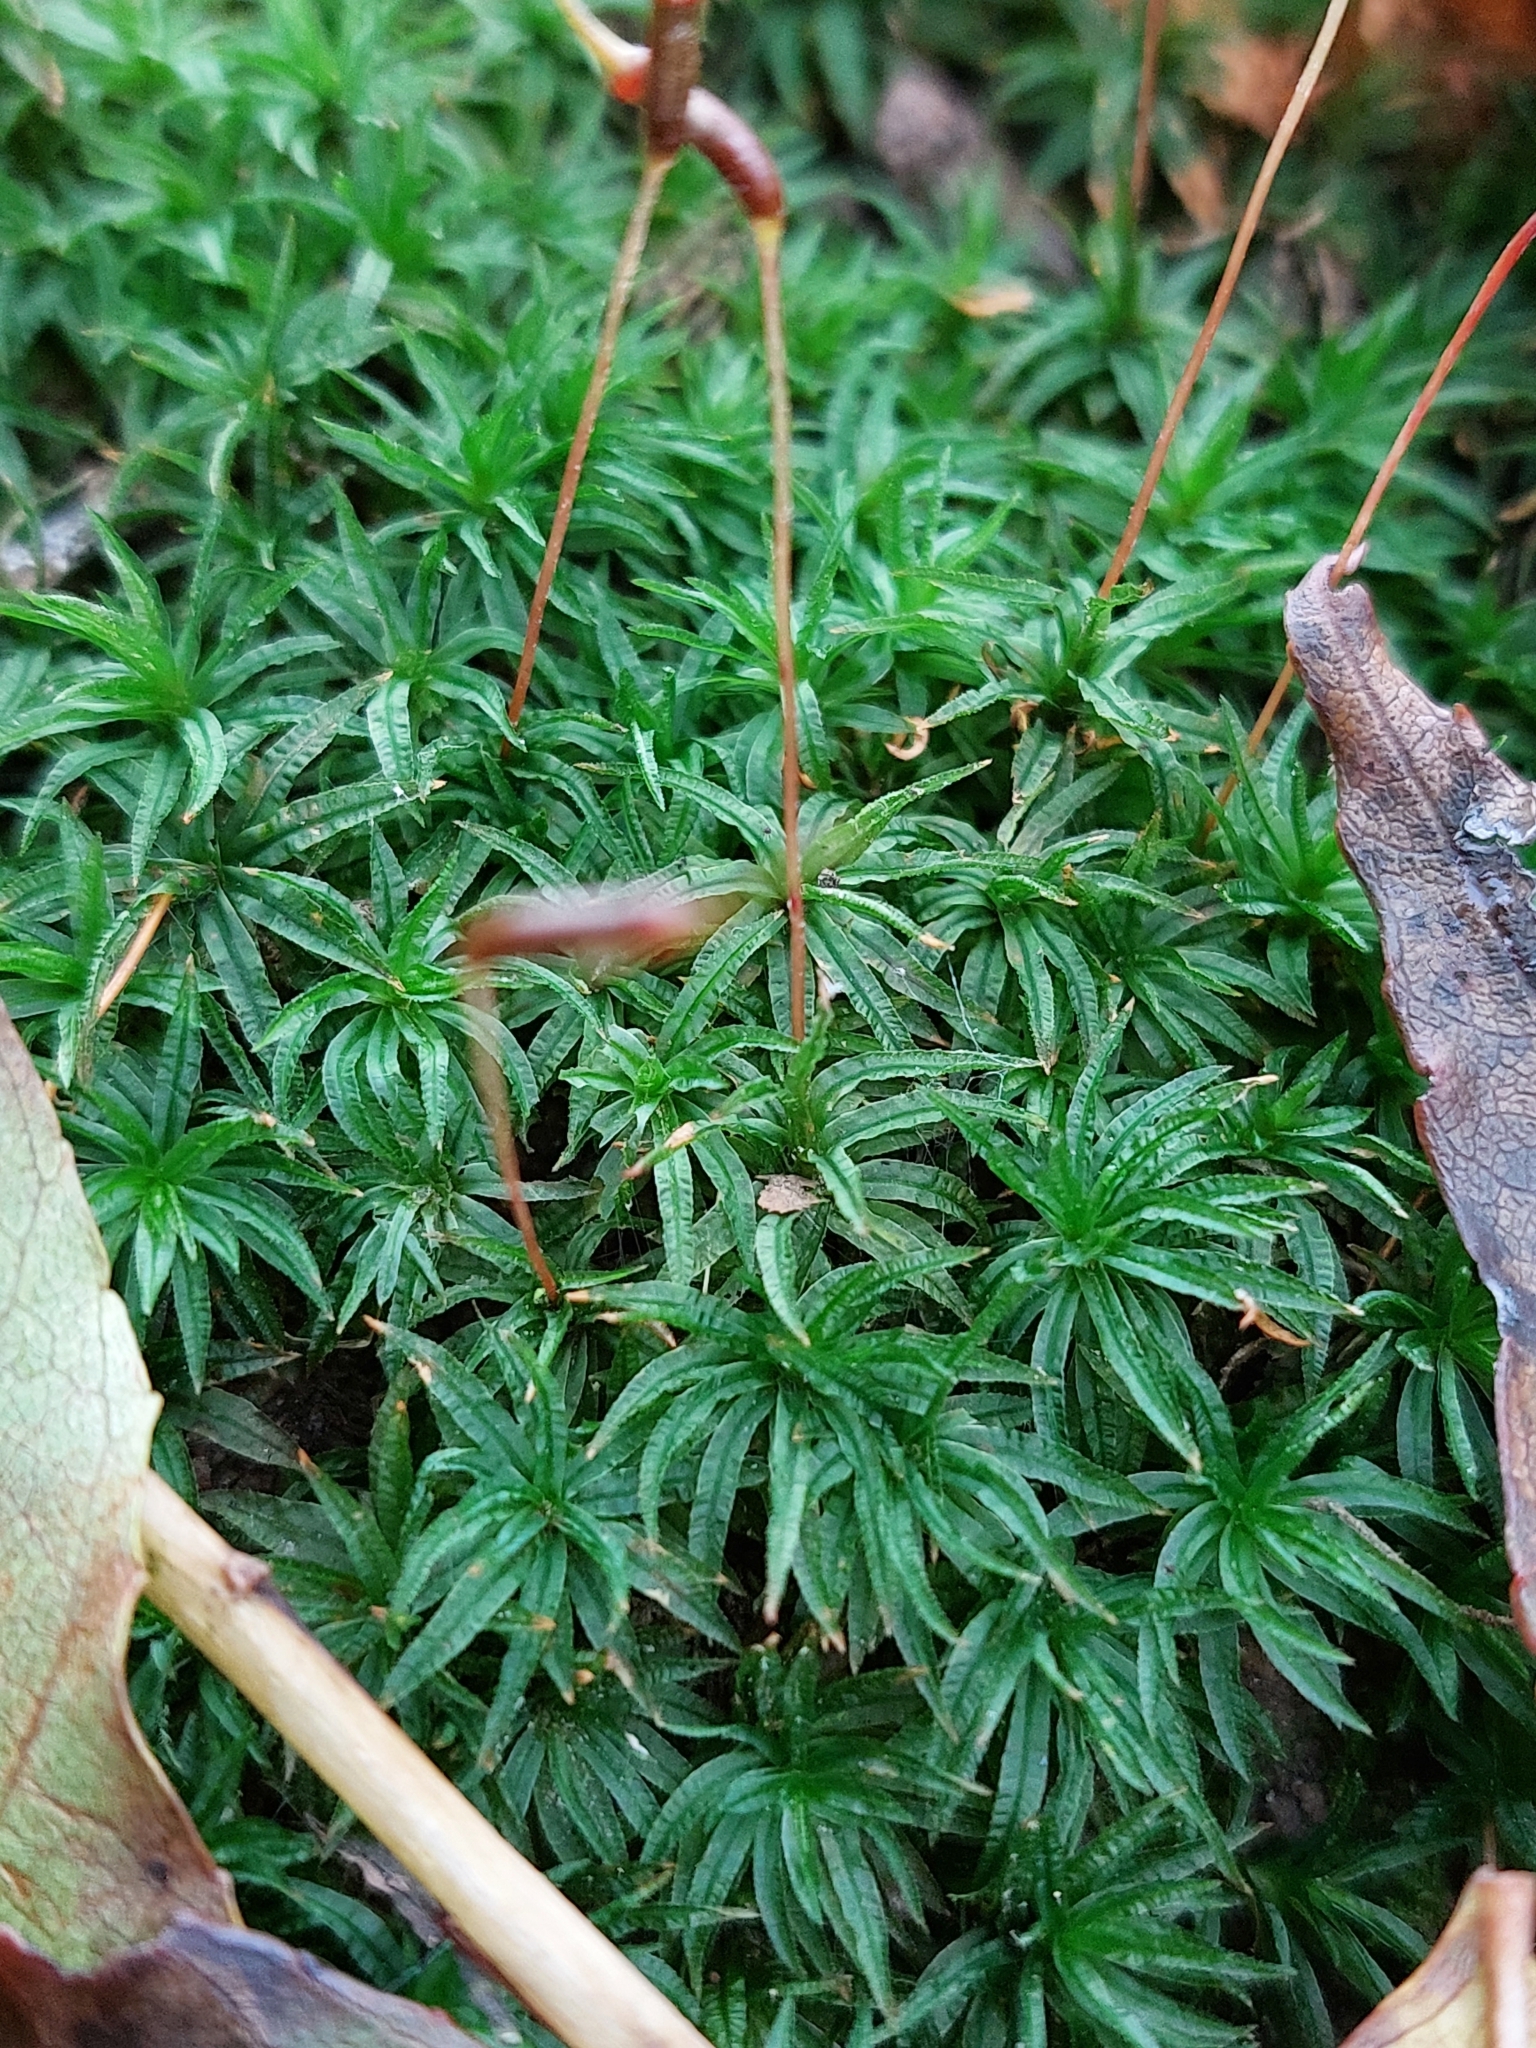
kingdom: Plantae
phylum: Bryophyta
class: Polytrichopsida
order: Polytrichales
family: Polytrichaceae
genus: Atrichum
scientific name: Atrichum undulatum
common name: Common smoothcap
